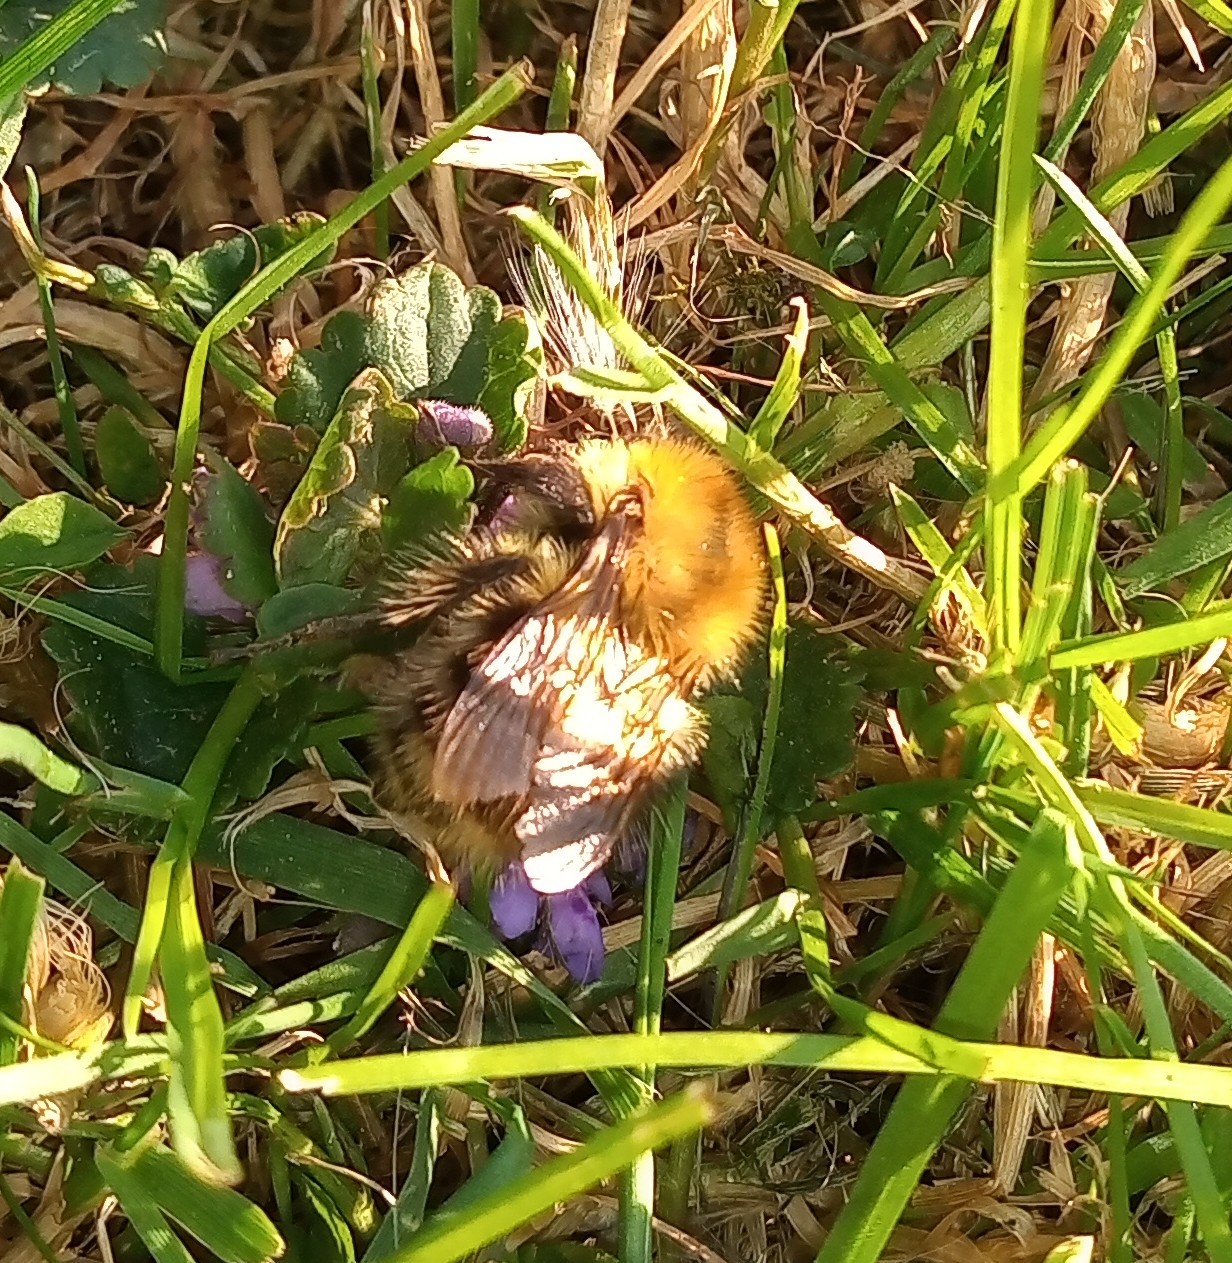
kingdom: Animalia
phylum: Arthropoda
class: Insecta
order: Hymenoptera
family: Apidae
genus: Bombus
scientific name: Bombus pascuorum
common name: Common carder bee
